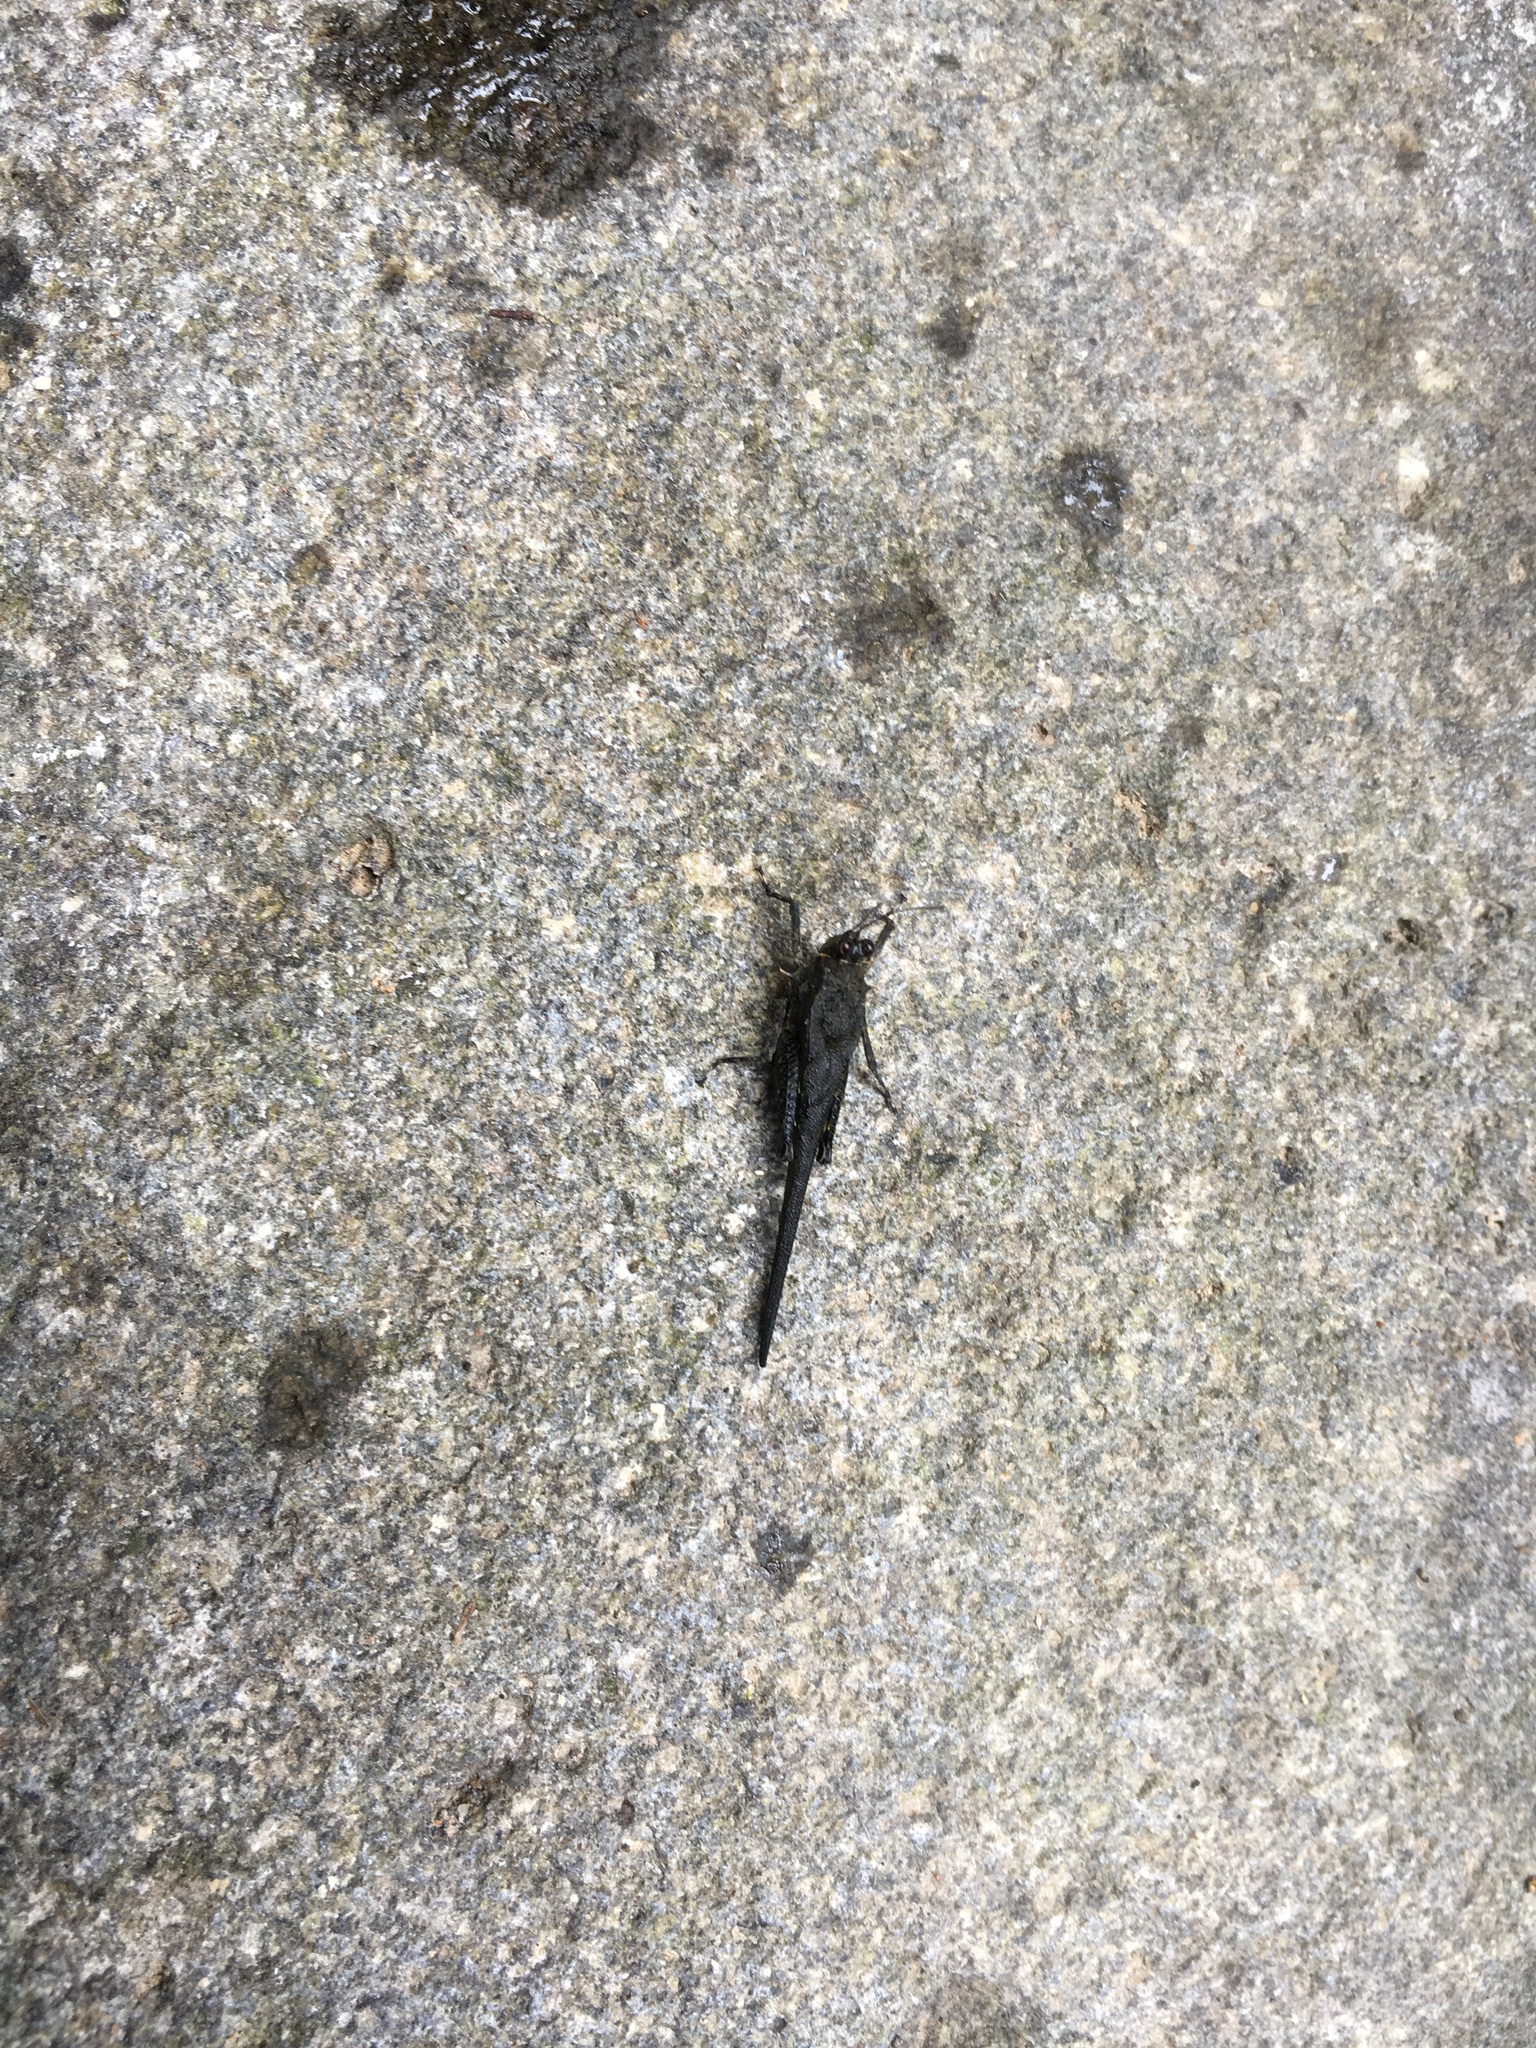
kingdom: Animalia
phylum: Arthropoda
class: Insecta
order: Orthoptera
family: Tetrigidae
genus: Scelimena
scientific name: Scelimena producta
